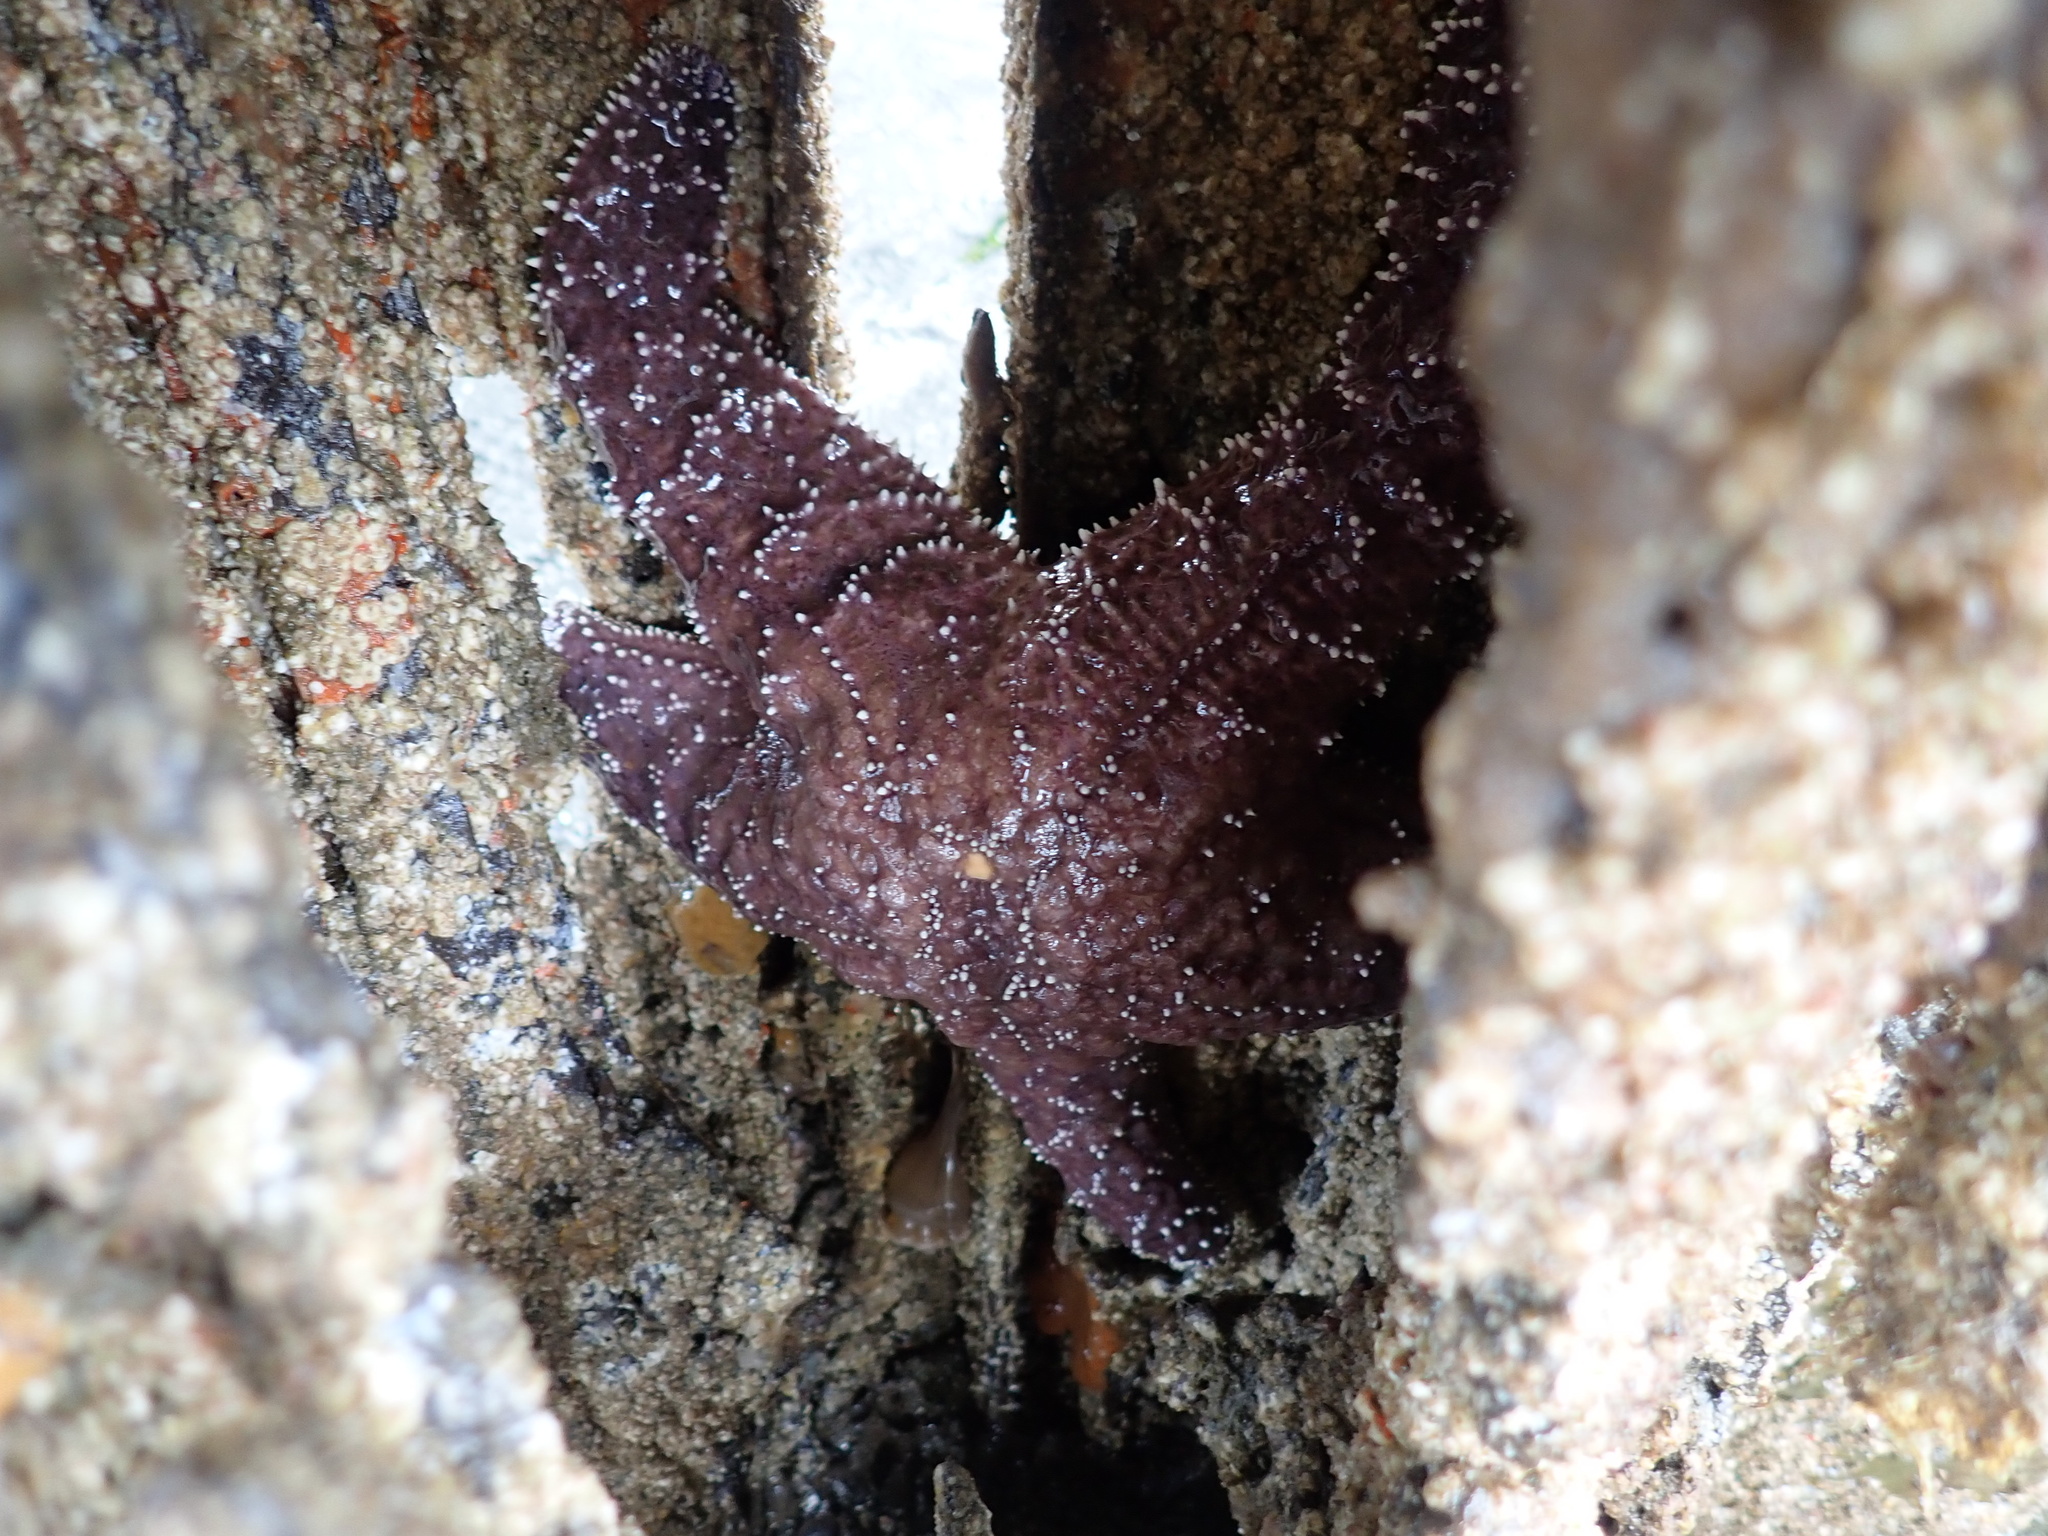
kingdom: Animalia
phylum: Echinodermata
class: Asteroidea
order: Forcipulatida
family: Asteriidae
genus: Pisaster
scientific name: Pisaster ochraceus
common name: Ochre stars
